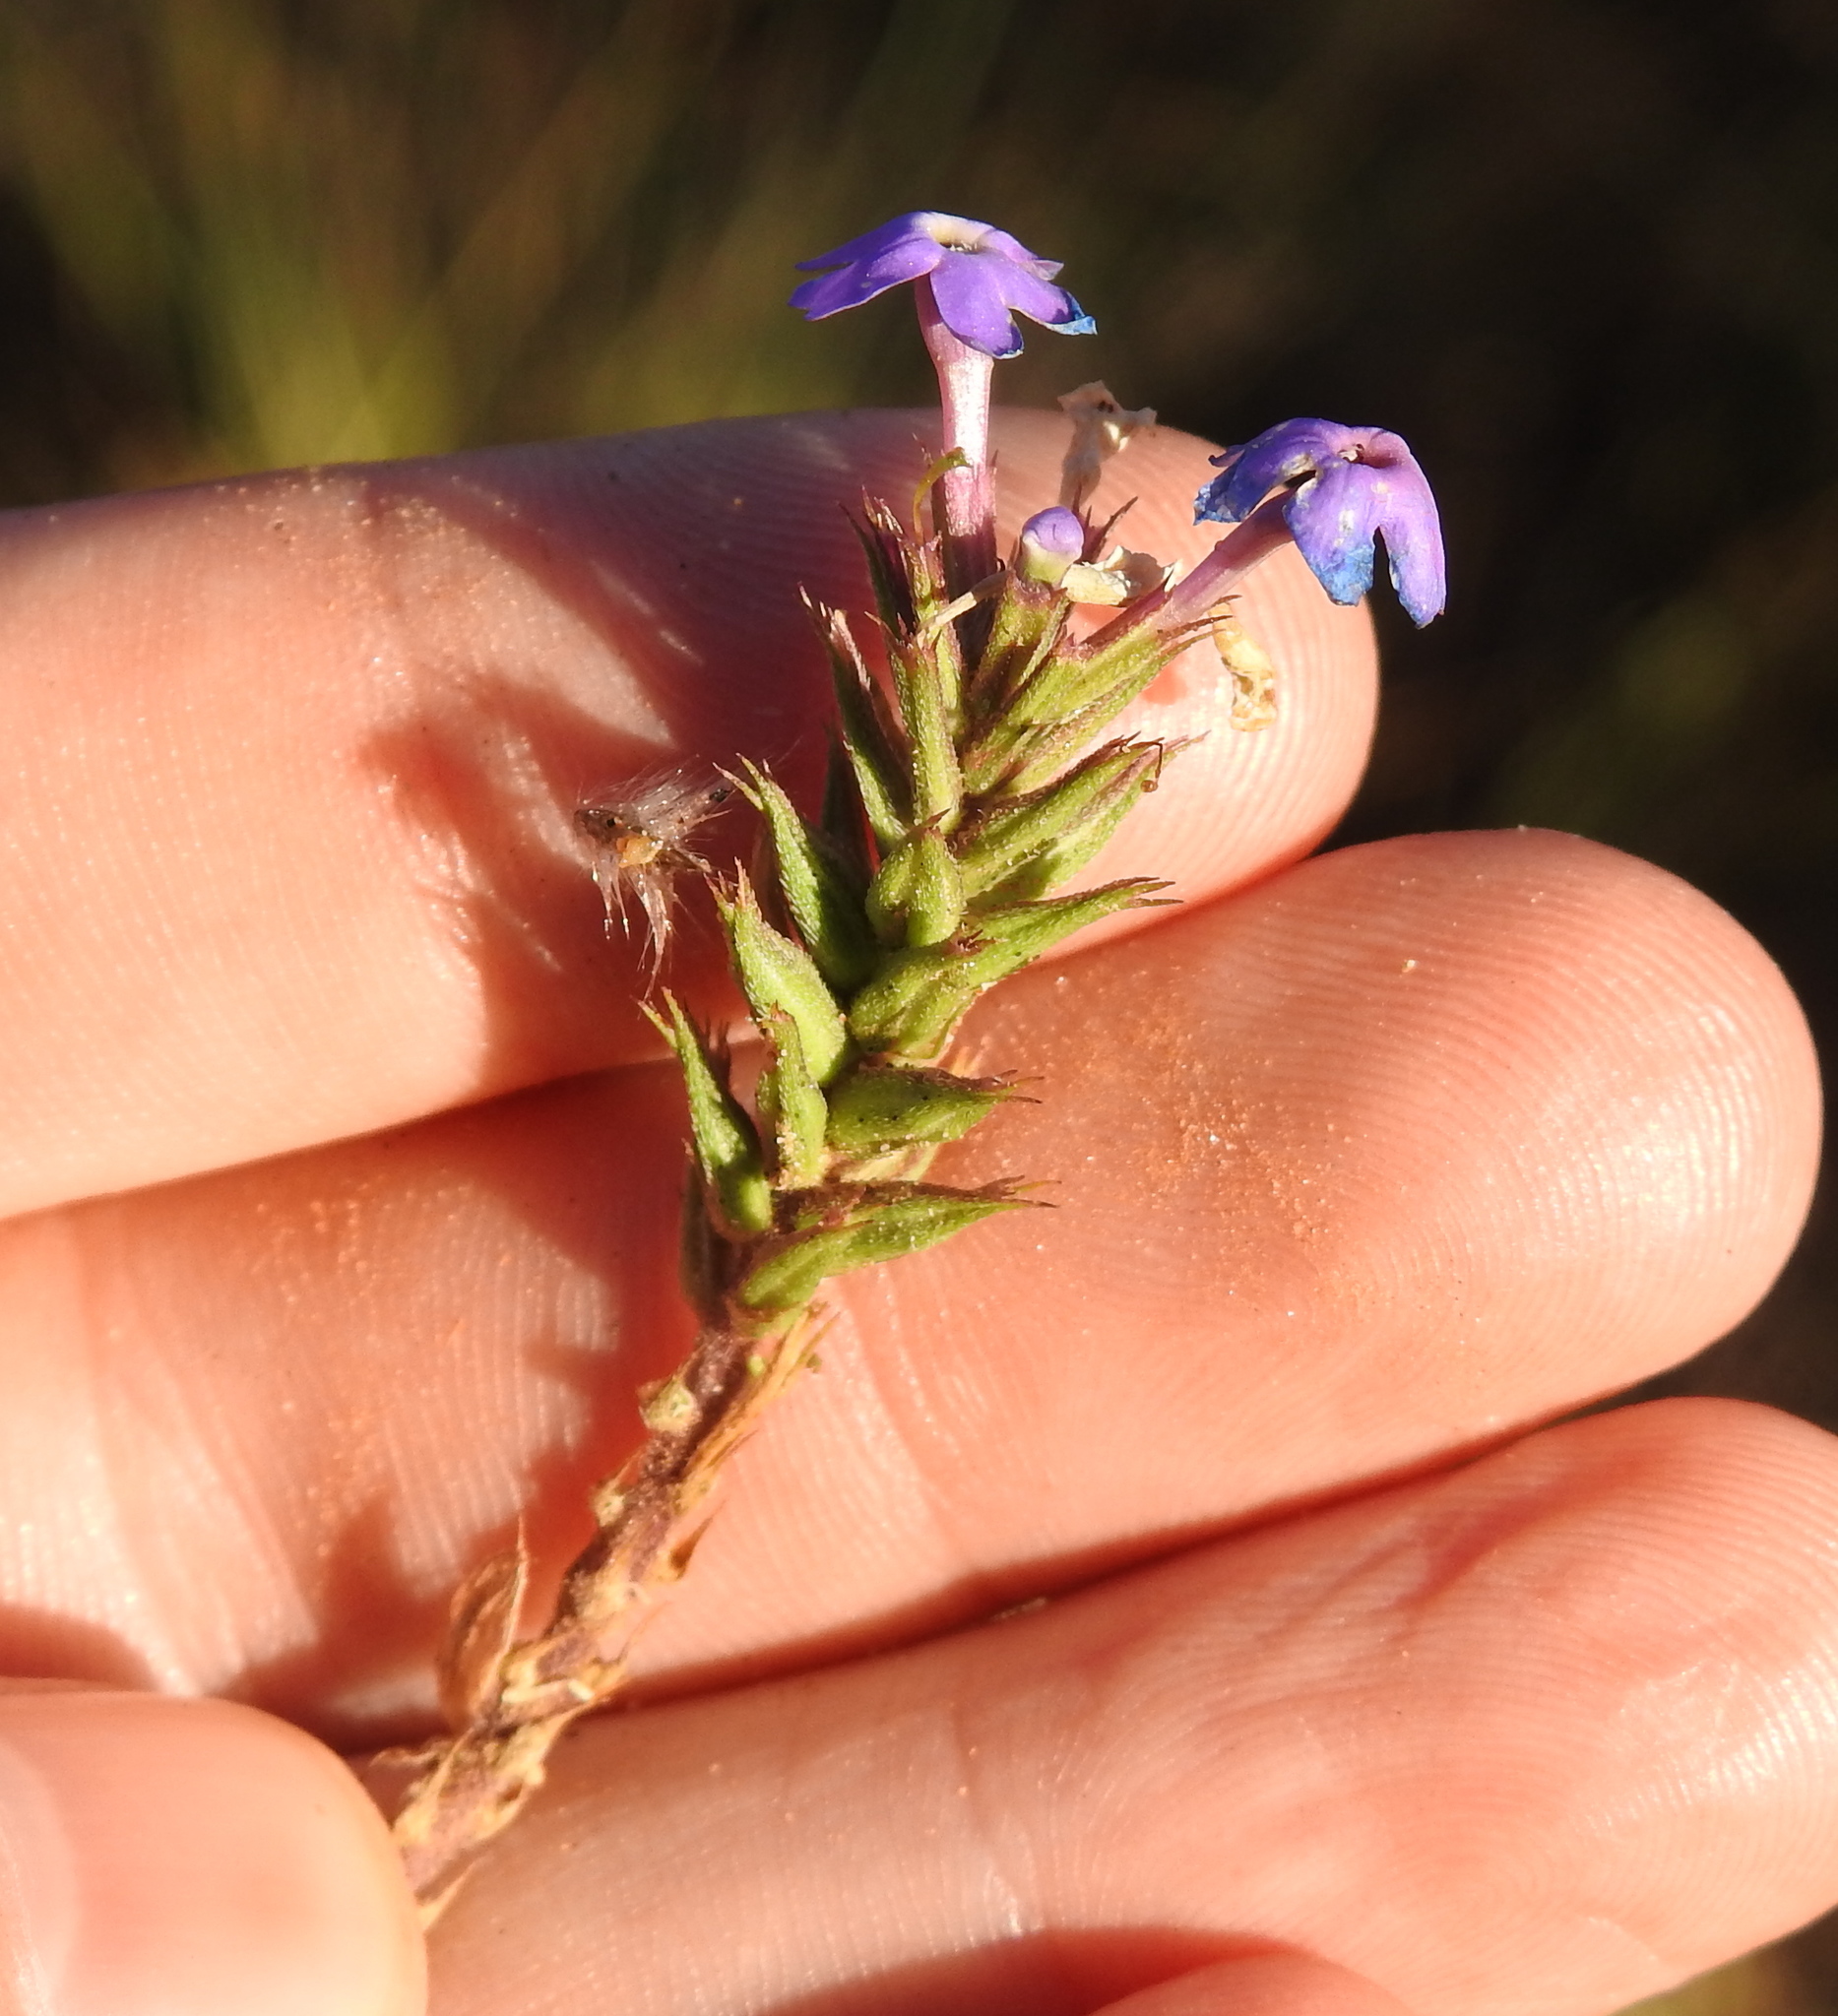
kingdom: Plantae
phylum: Tracheophyta
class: Magnoliopsida
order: Lamiales
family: Verbenaceae
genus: Verbena
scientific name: Verbena aristigera
